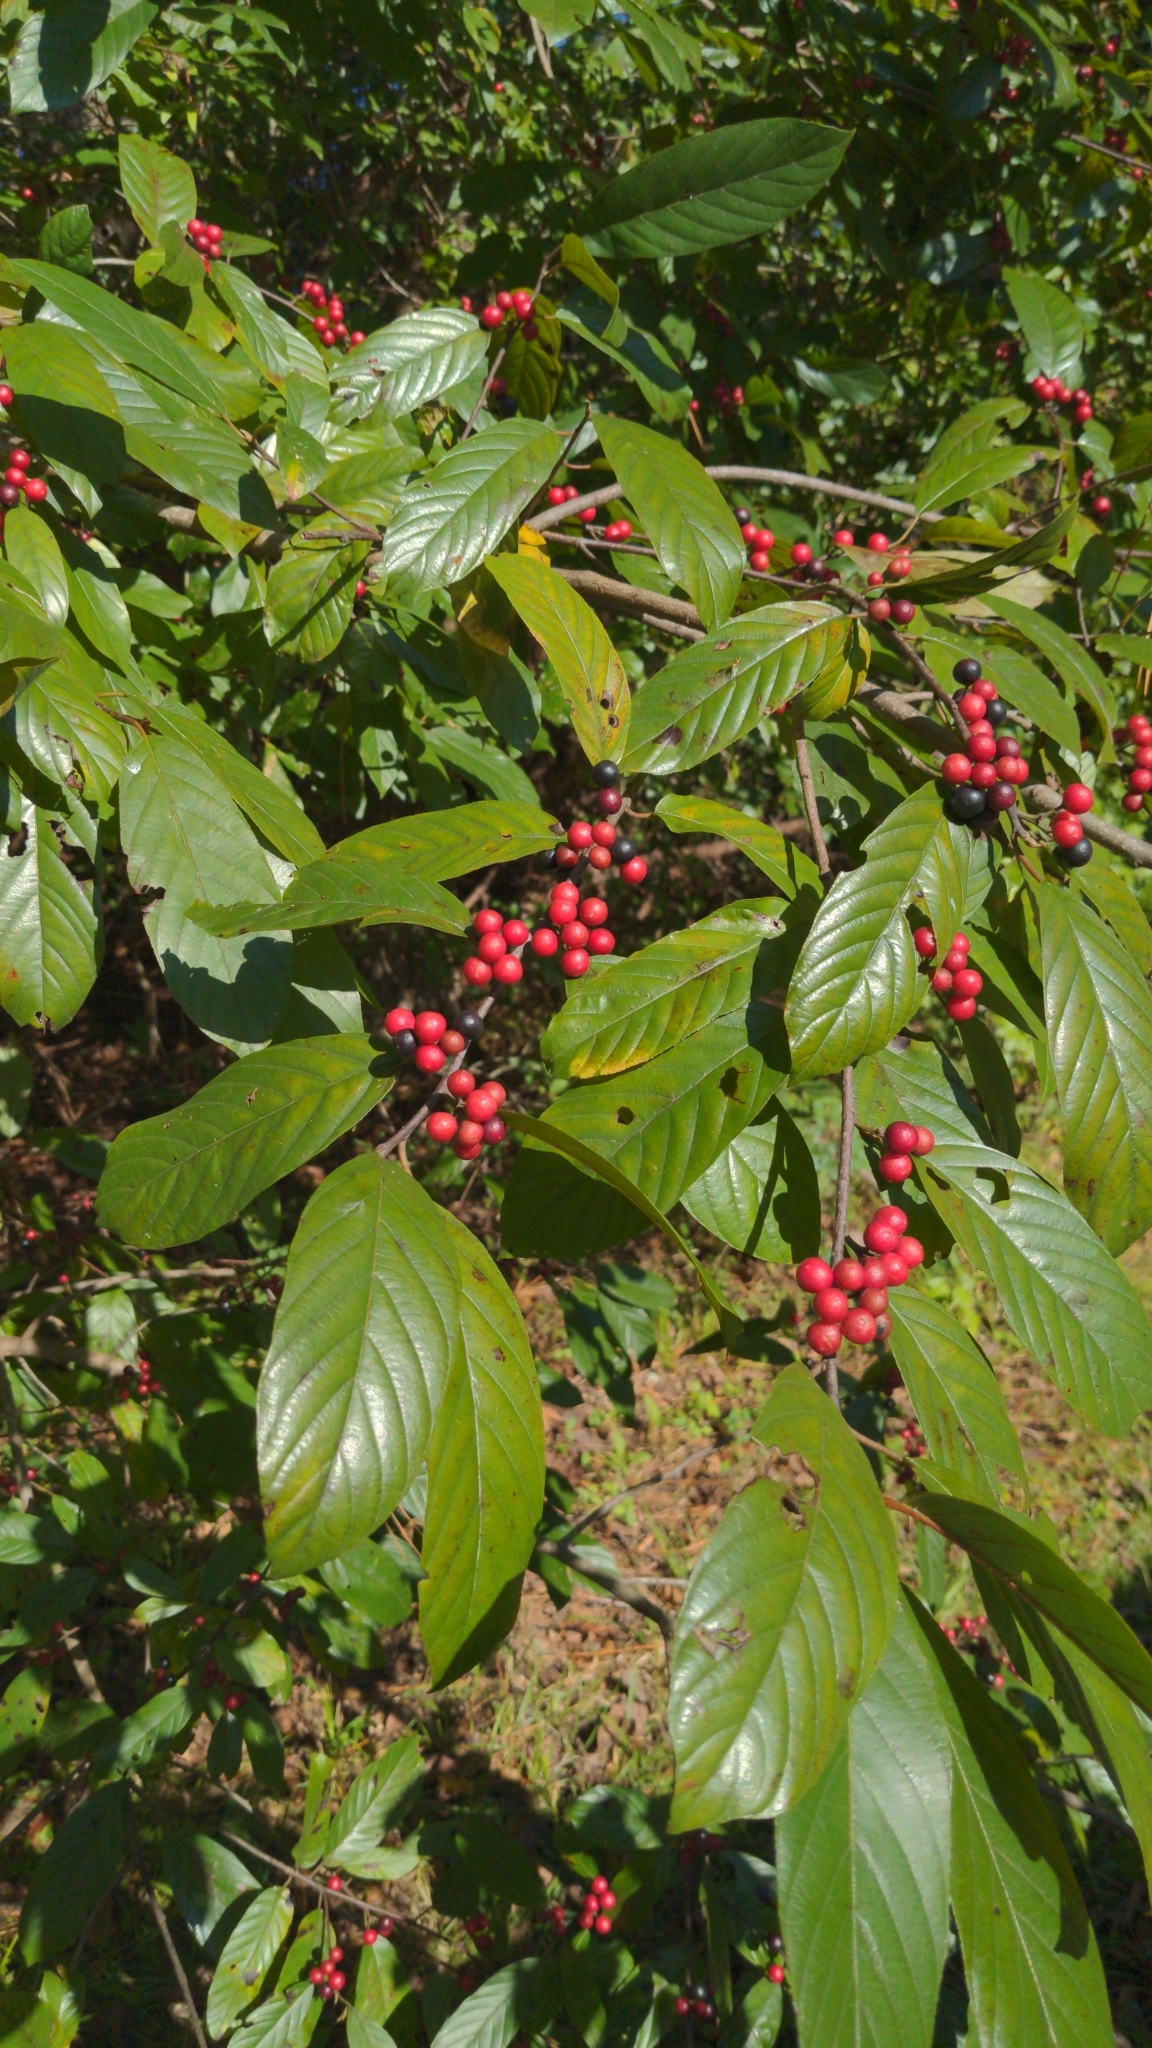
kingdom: Plantae
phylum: Tracheophyta
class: Magnoliopsida
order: Rosales
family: Rhamnaceae
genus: Frangula
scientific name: Frangula caroliniana
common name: Carolina buckthorn
